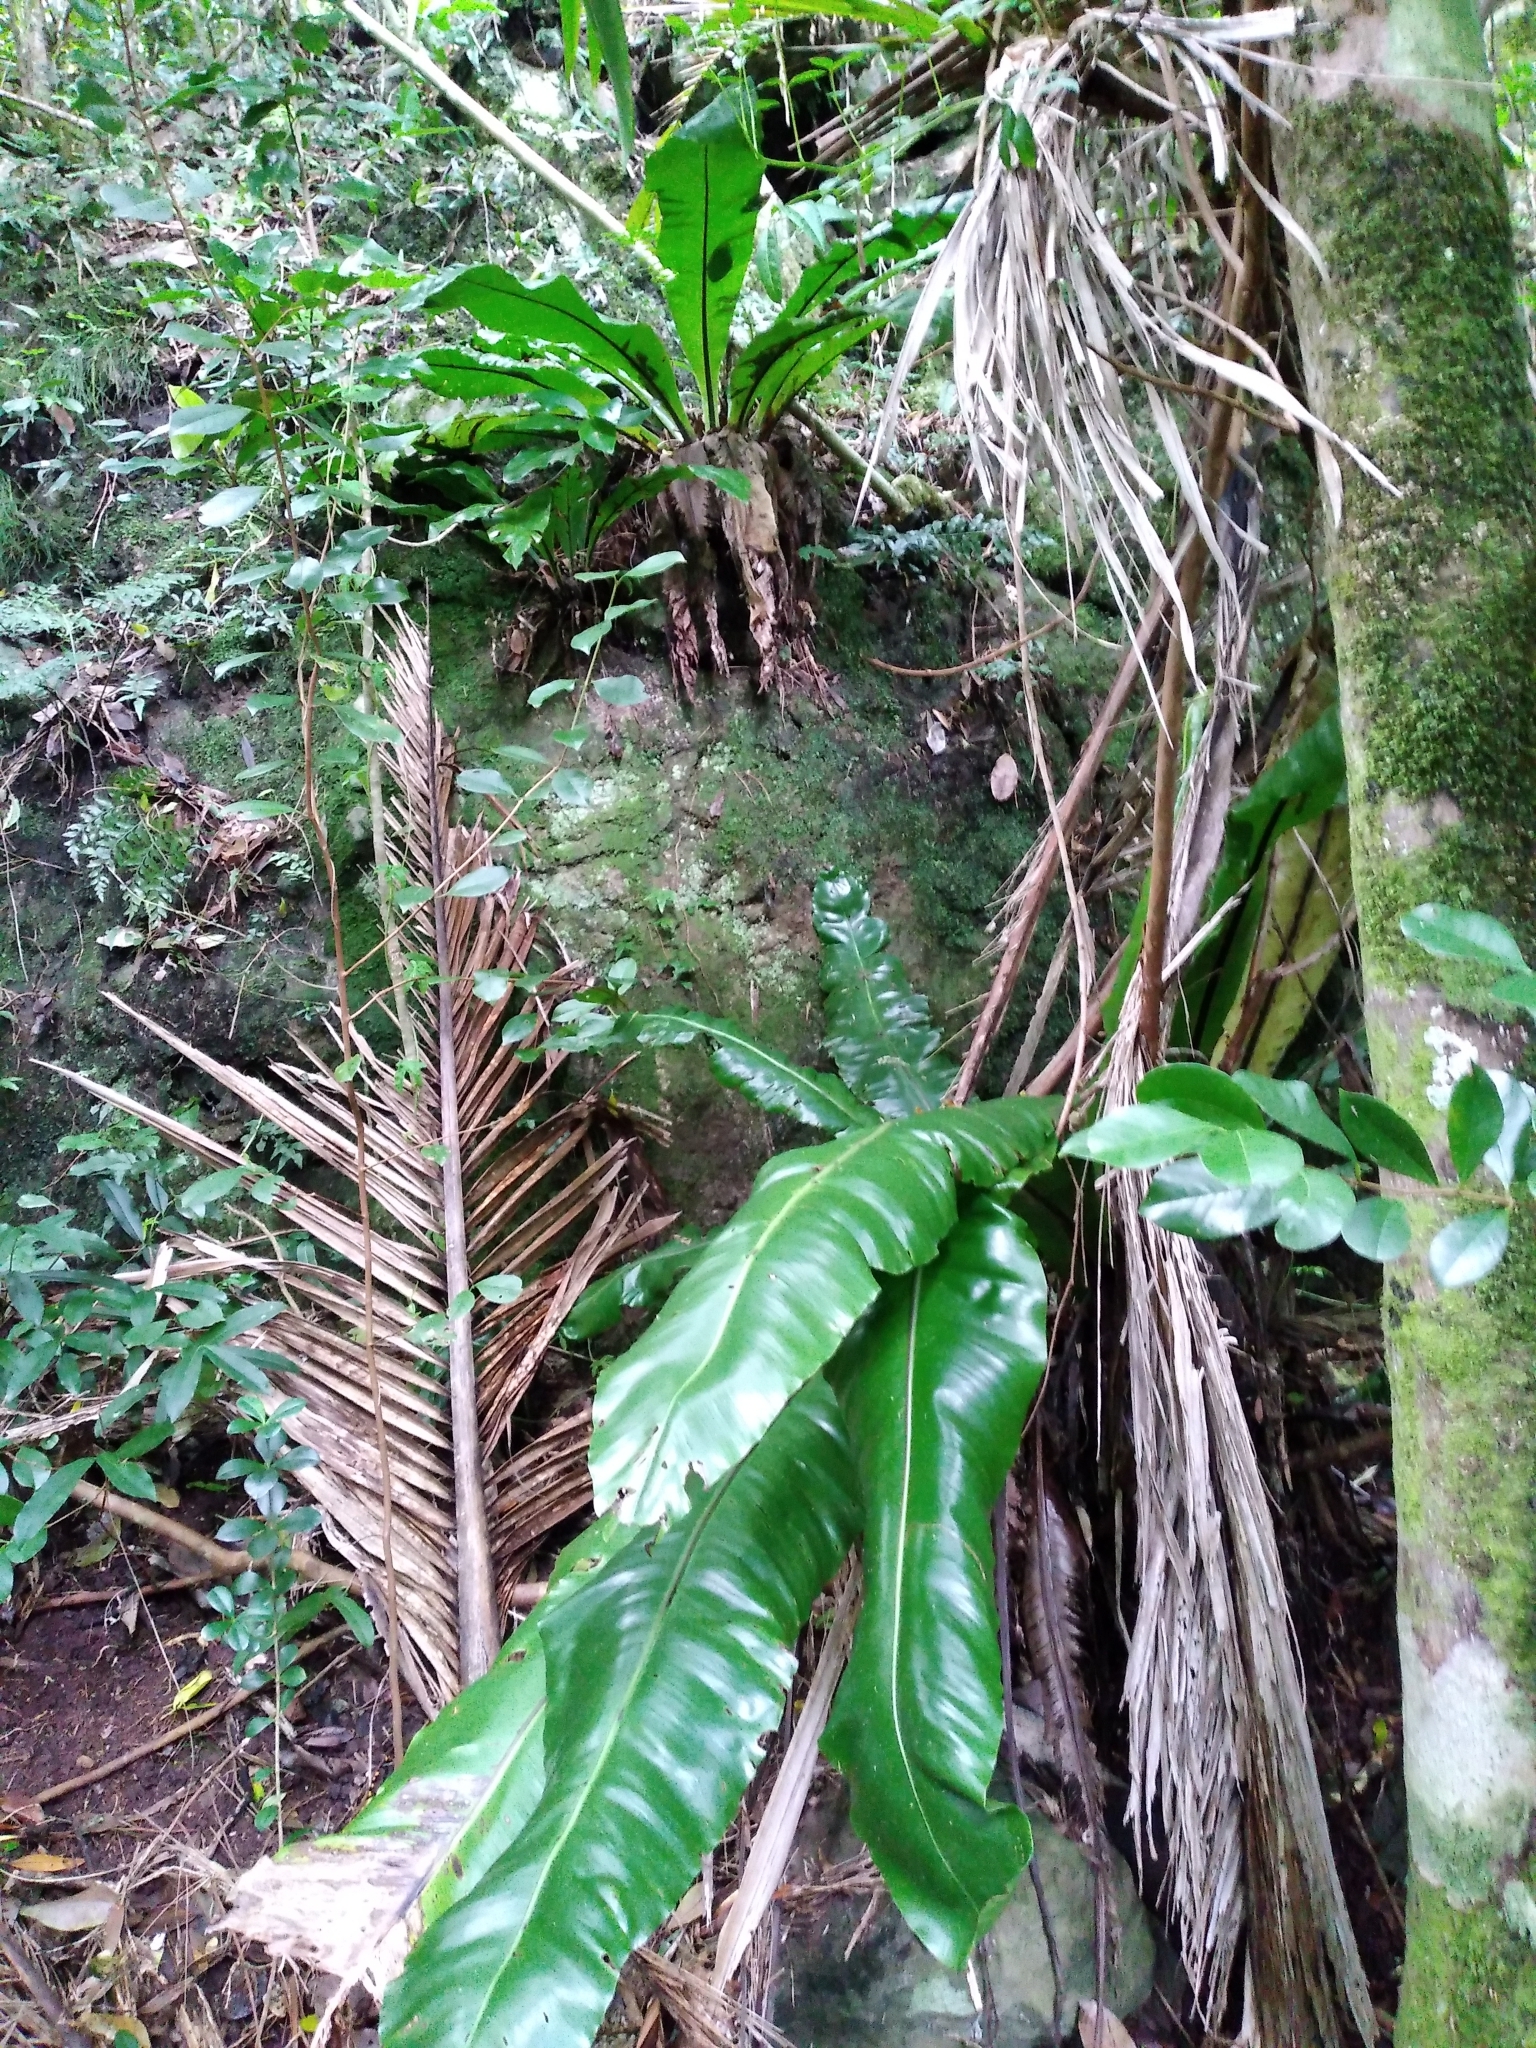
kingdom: Plantae
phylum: Tracheophyta
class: Polypodiopsida
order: Polypodiales
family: Aspleniaceae
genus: Asplenium
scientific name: Asplenium australasicum
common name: Bird's-nest fern
